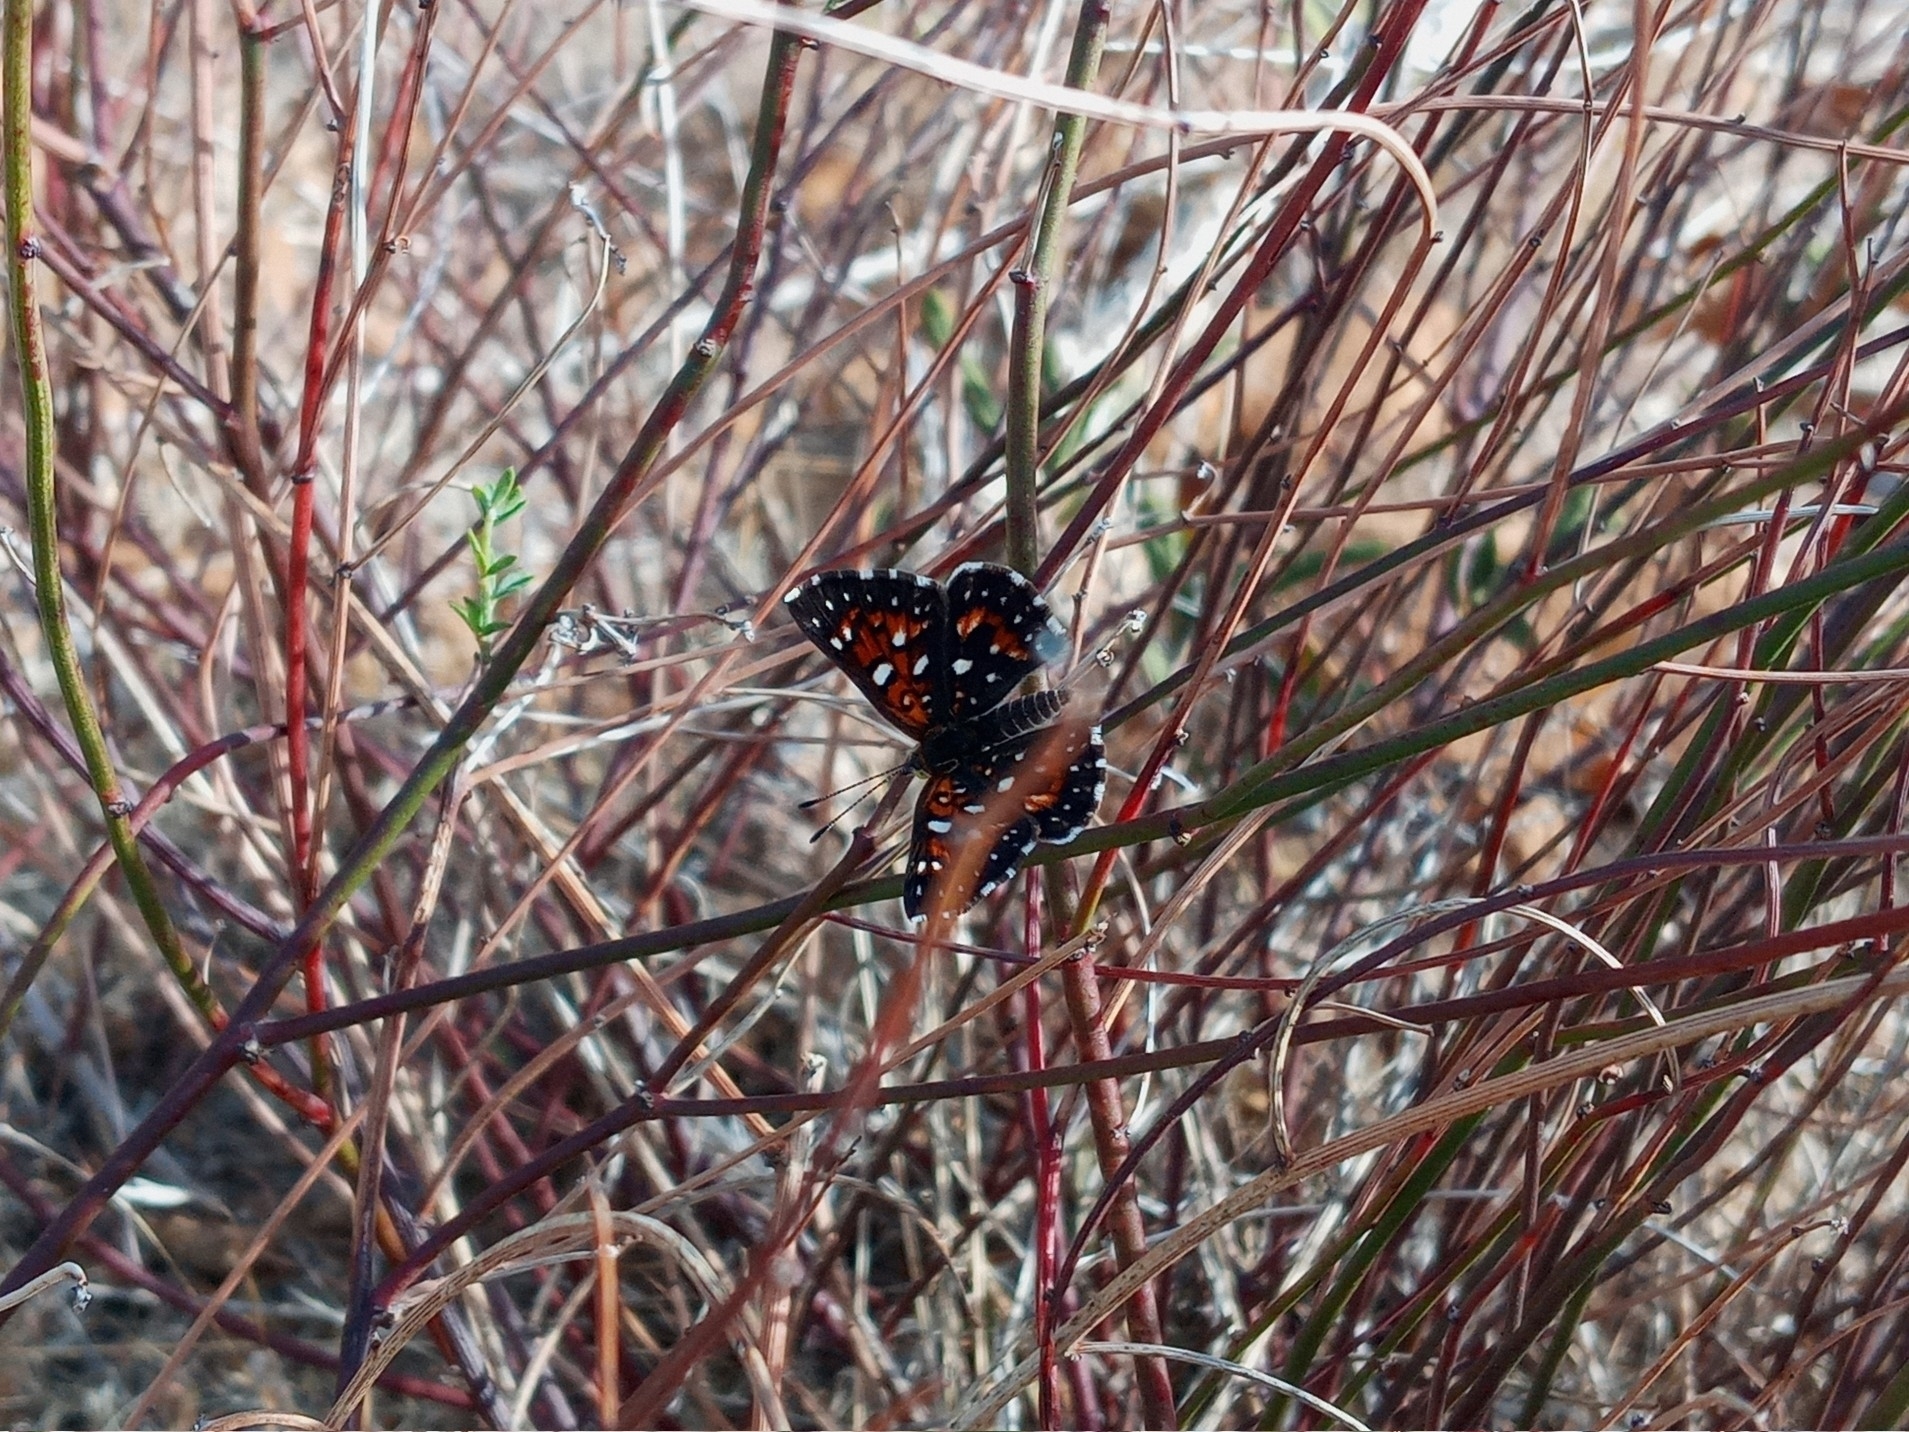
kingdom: Animalia
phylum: Arthropoda
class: Insecta
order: Lepidoptera
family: Riodinidae
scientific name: Riodinidae
